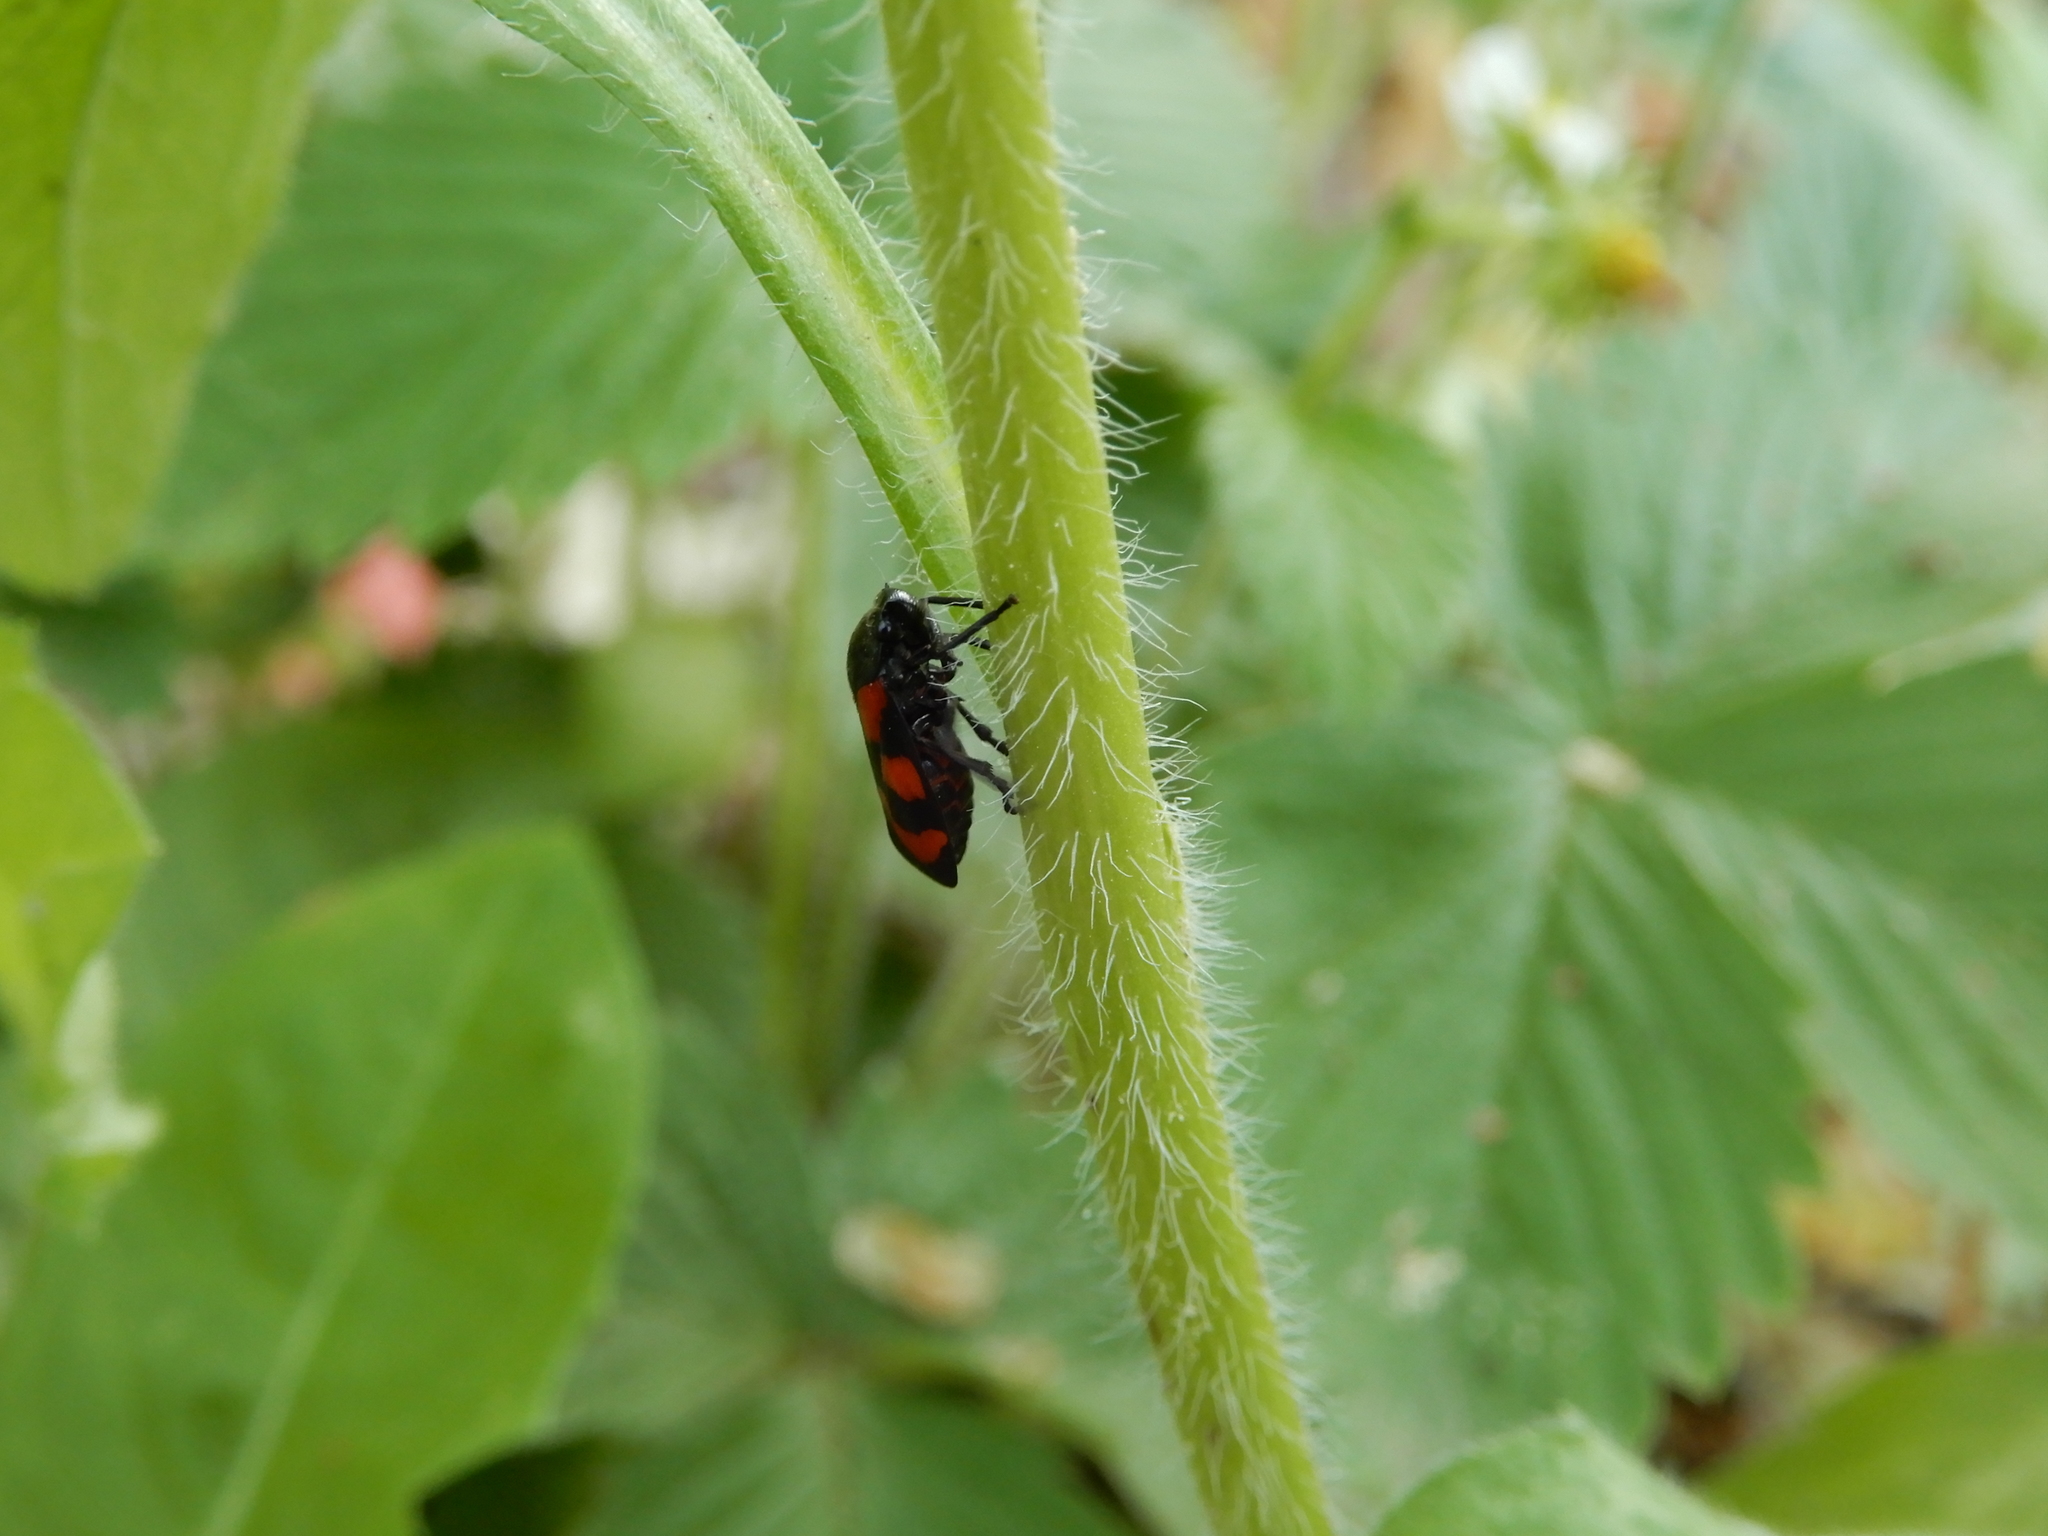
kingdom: Animalia
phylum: Arthropoda
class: Insecta
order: Hemiptera
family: Cercopidae
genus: Cercopis
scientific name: Cercopis vulnerata
